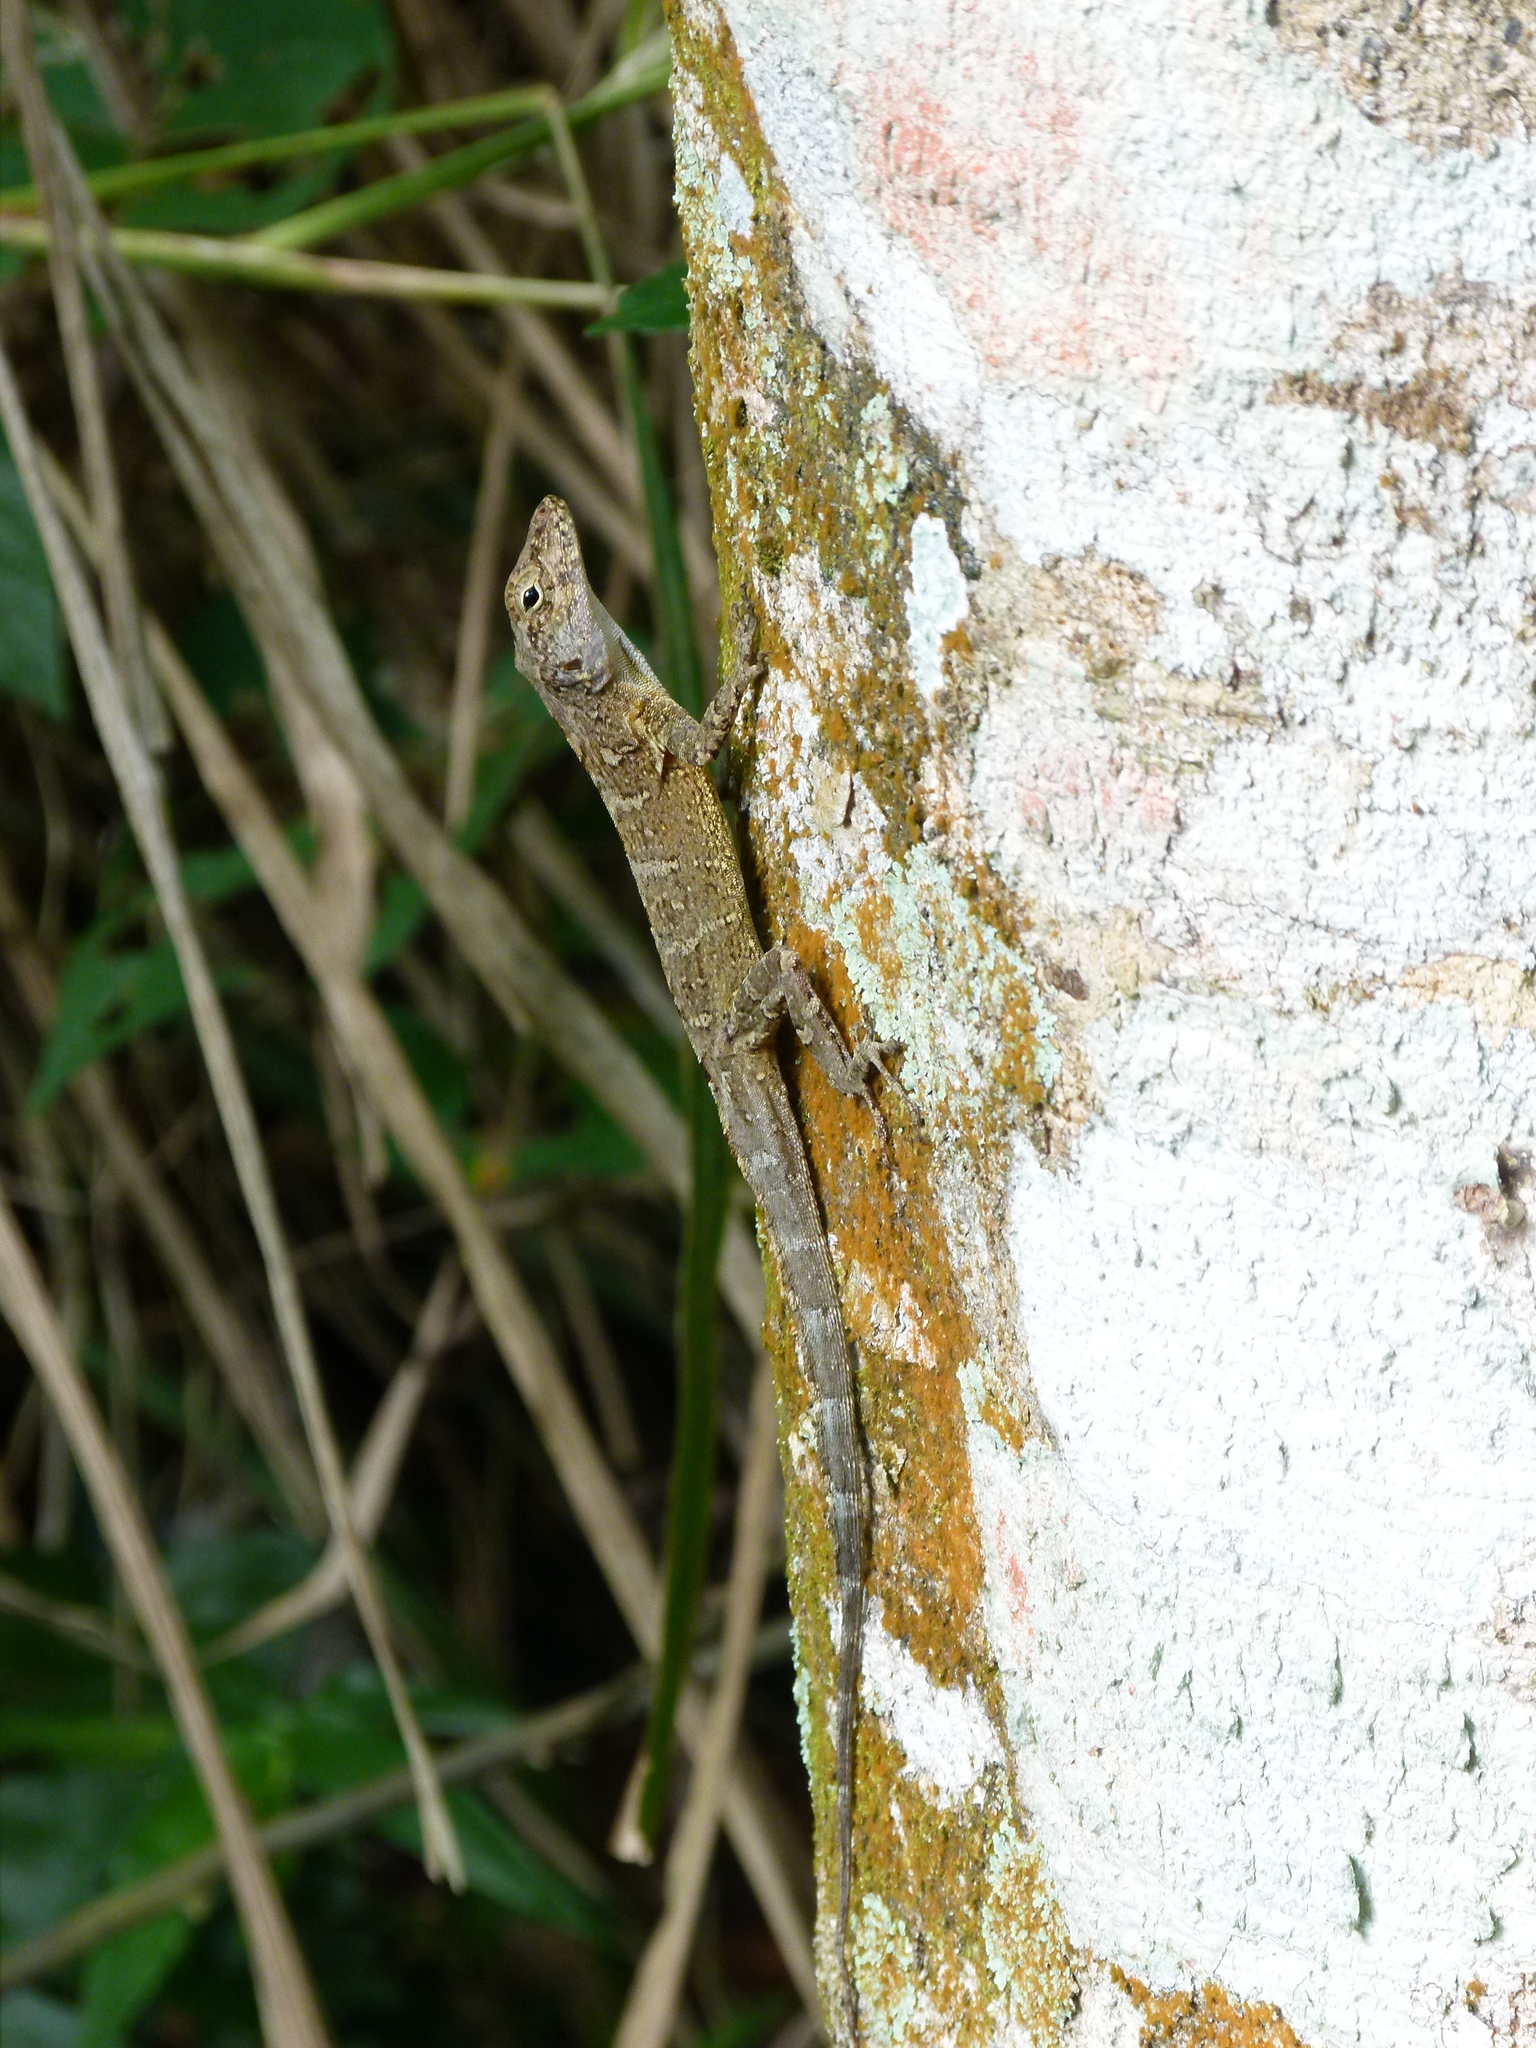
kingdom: Animalia
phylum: Chordata
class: Squamata
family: Dactyloidae
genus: Anolis
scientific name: Anolis cristatellus
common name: Crested anole
